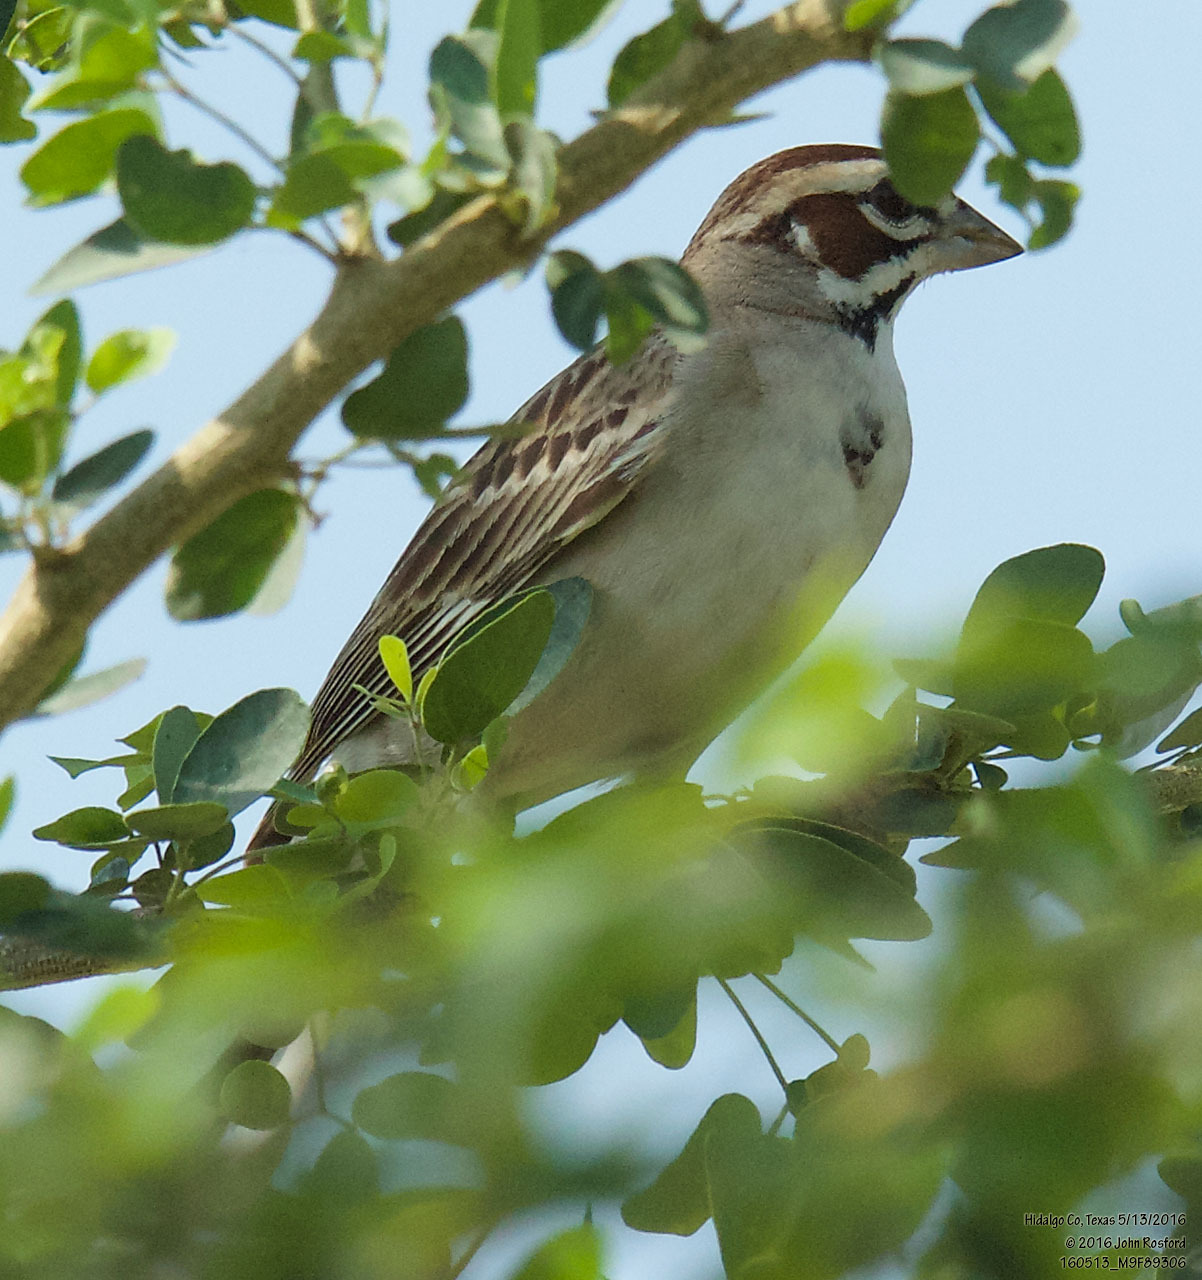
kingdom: Animalia
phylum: Chordata
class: Aves
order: Passeriformes
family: Passerellidae
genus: Chondestes
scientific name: Chondestes grammacus
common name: Lark sparrow
